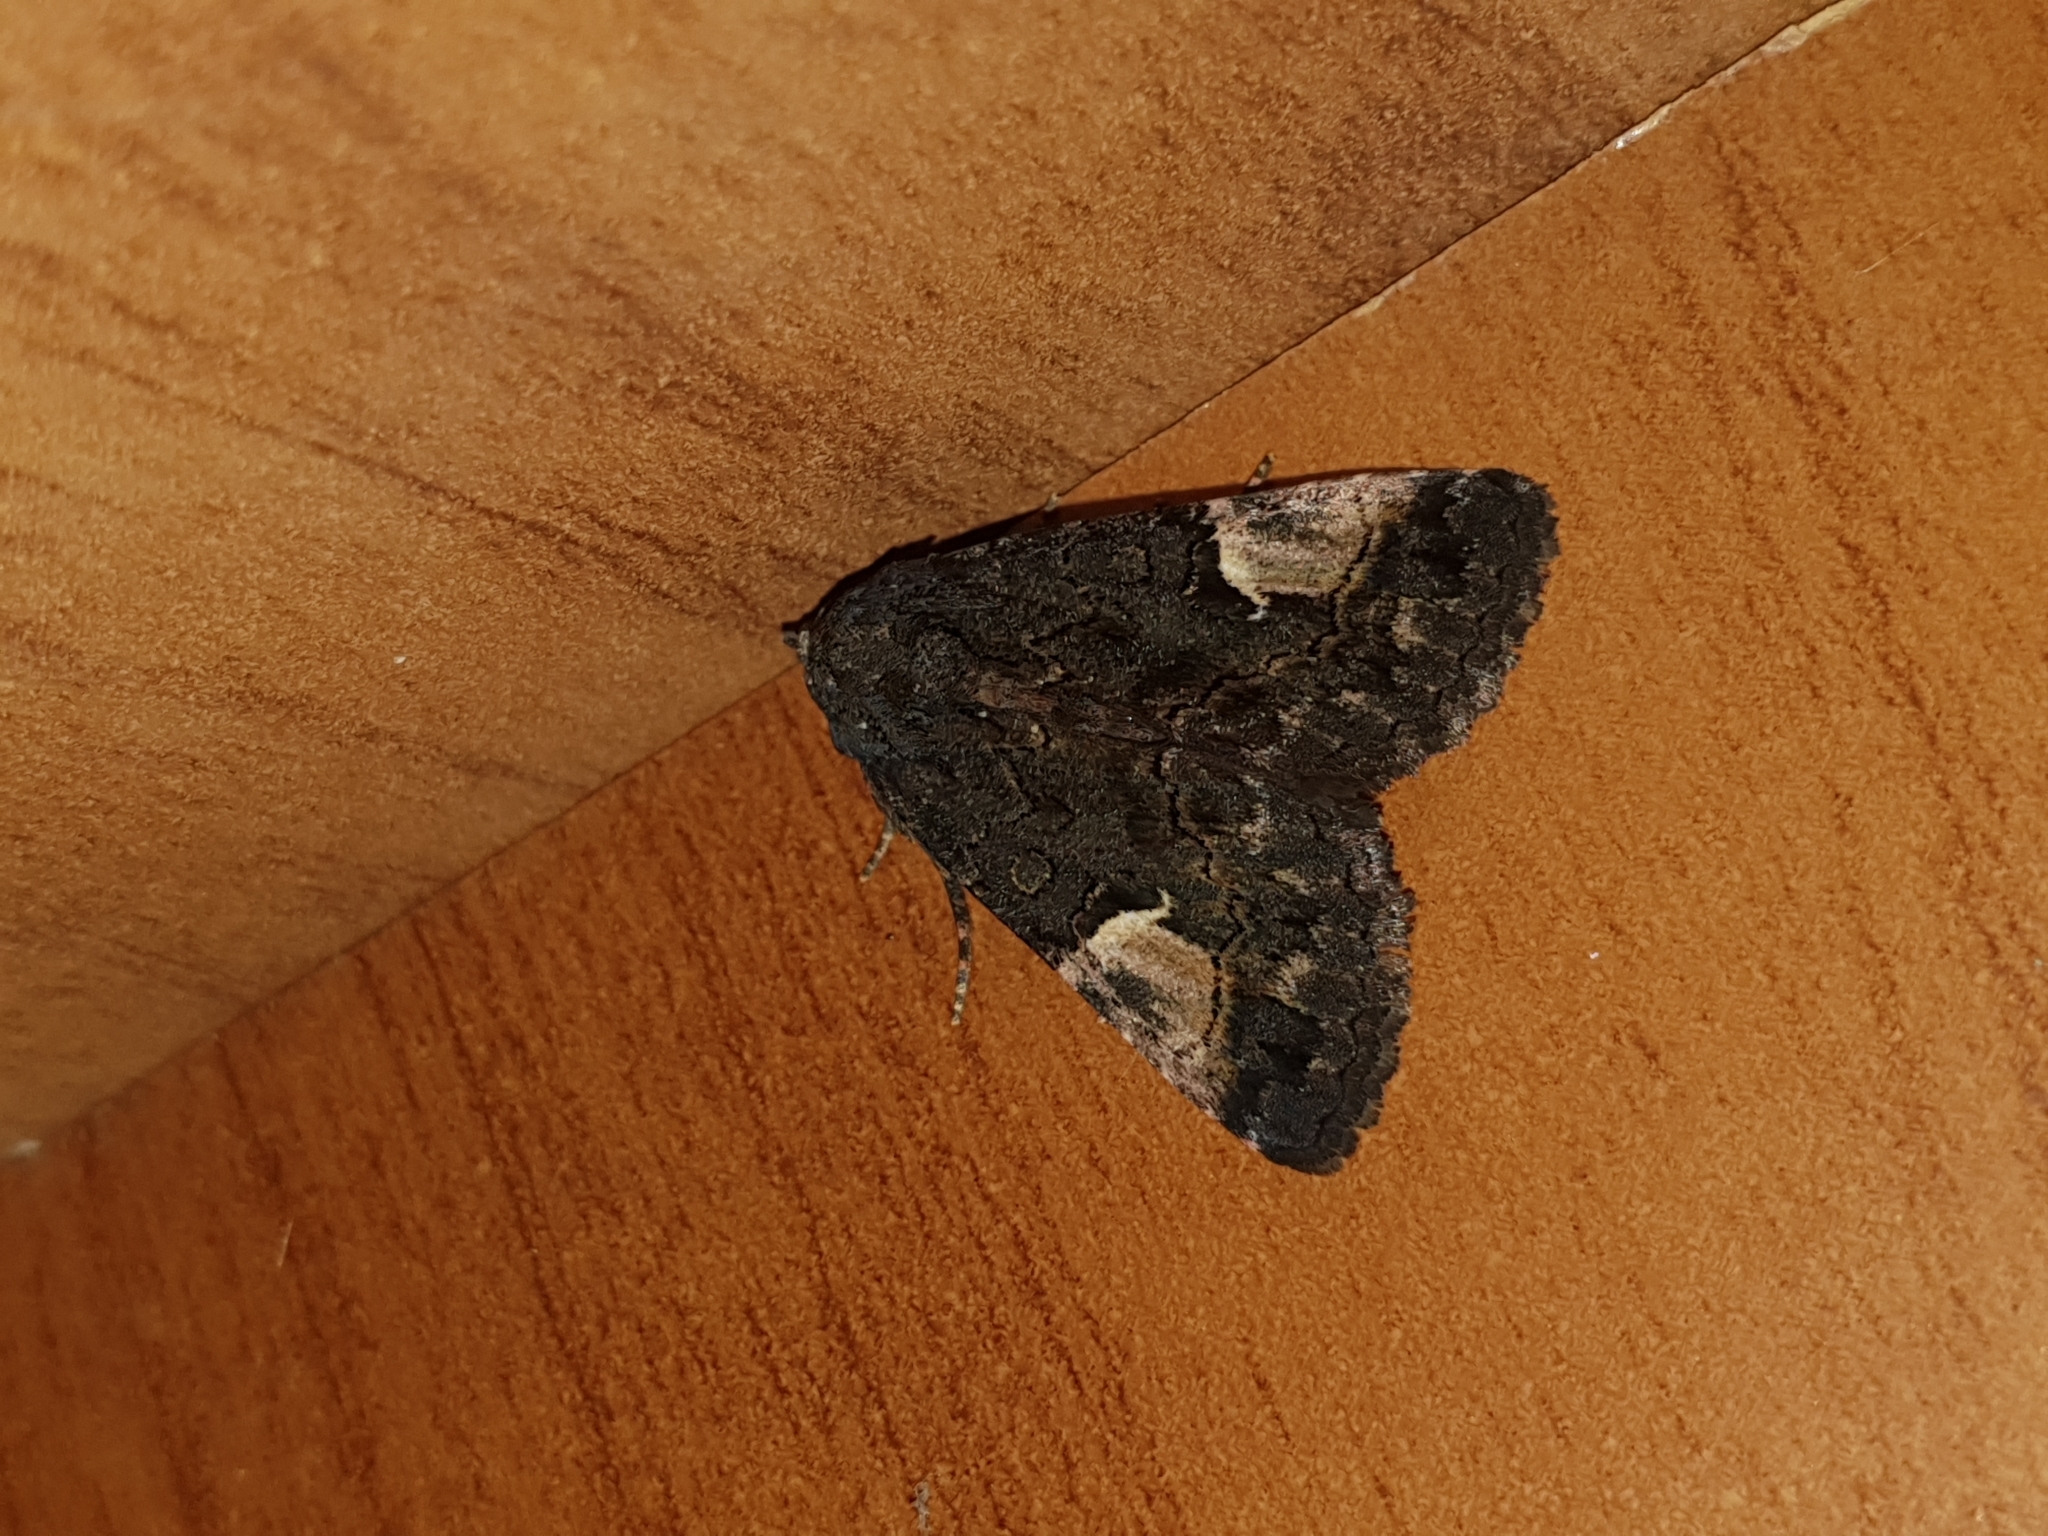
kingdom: Animalia
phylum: Arthropoda
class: Insecta
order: Lepidoptera
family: Noctuidae
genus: Aedia
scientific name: Aedia funesta
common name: The druid
